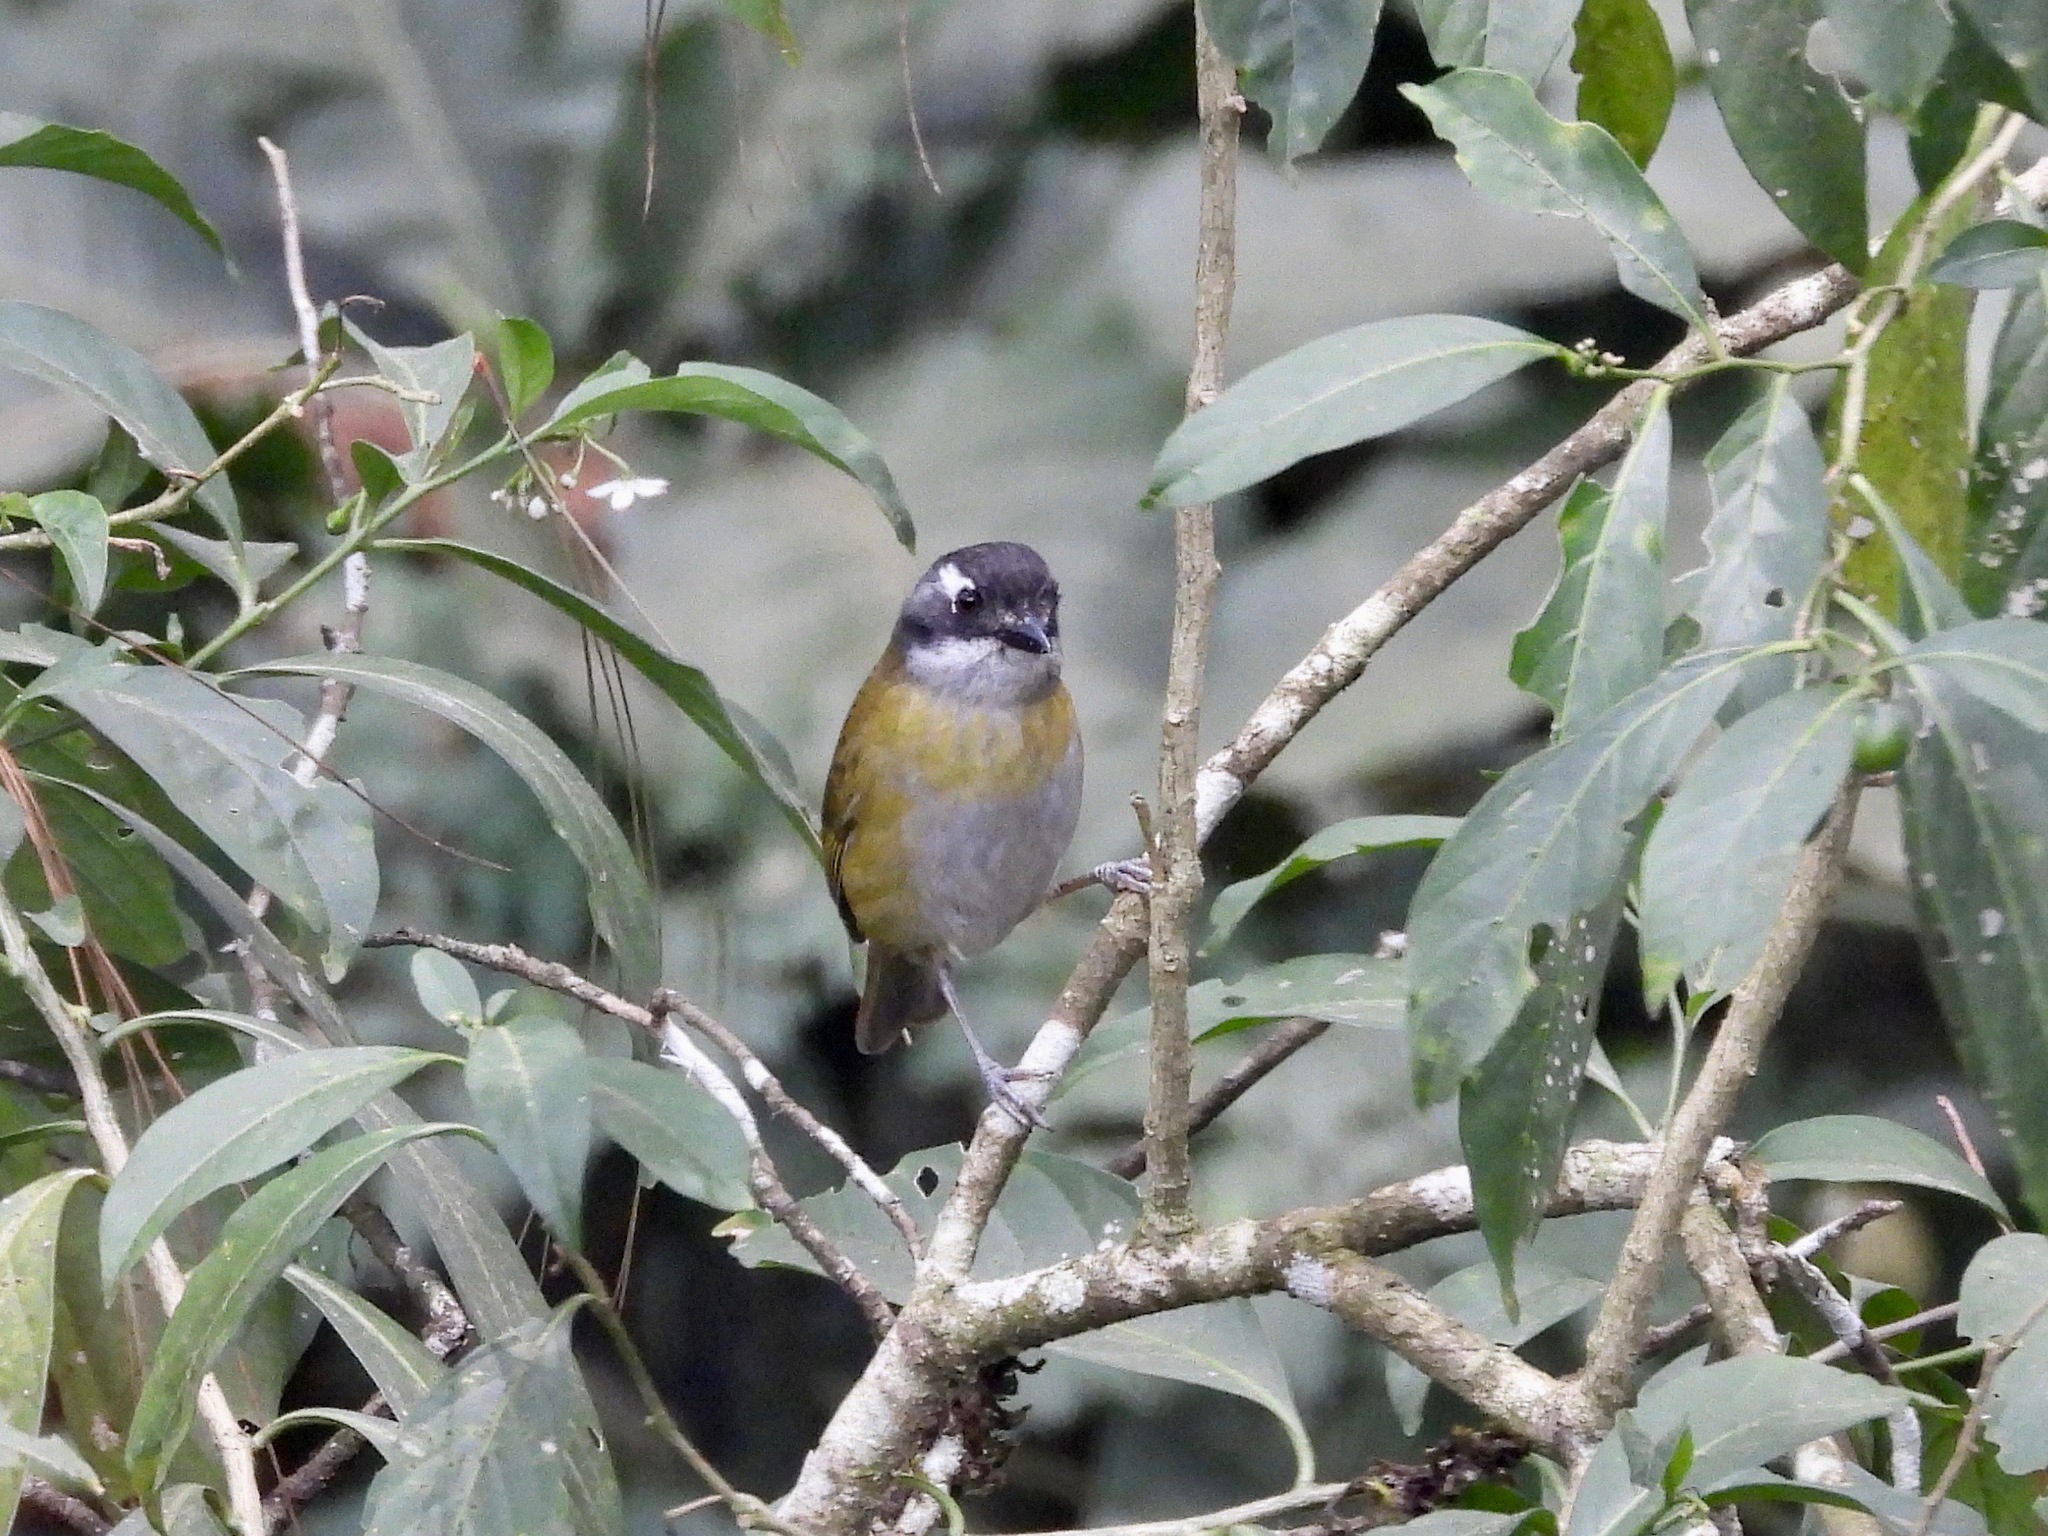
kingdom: Animalia
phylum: Chordata
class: Aves
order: Passeriformes
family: Passerellidae
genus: Chlorospingus
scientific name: Chlorospingus flavopectus
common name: Common chlorospingus
